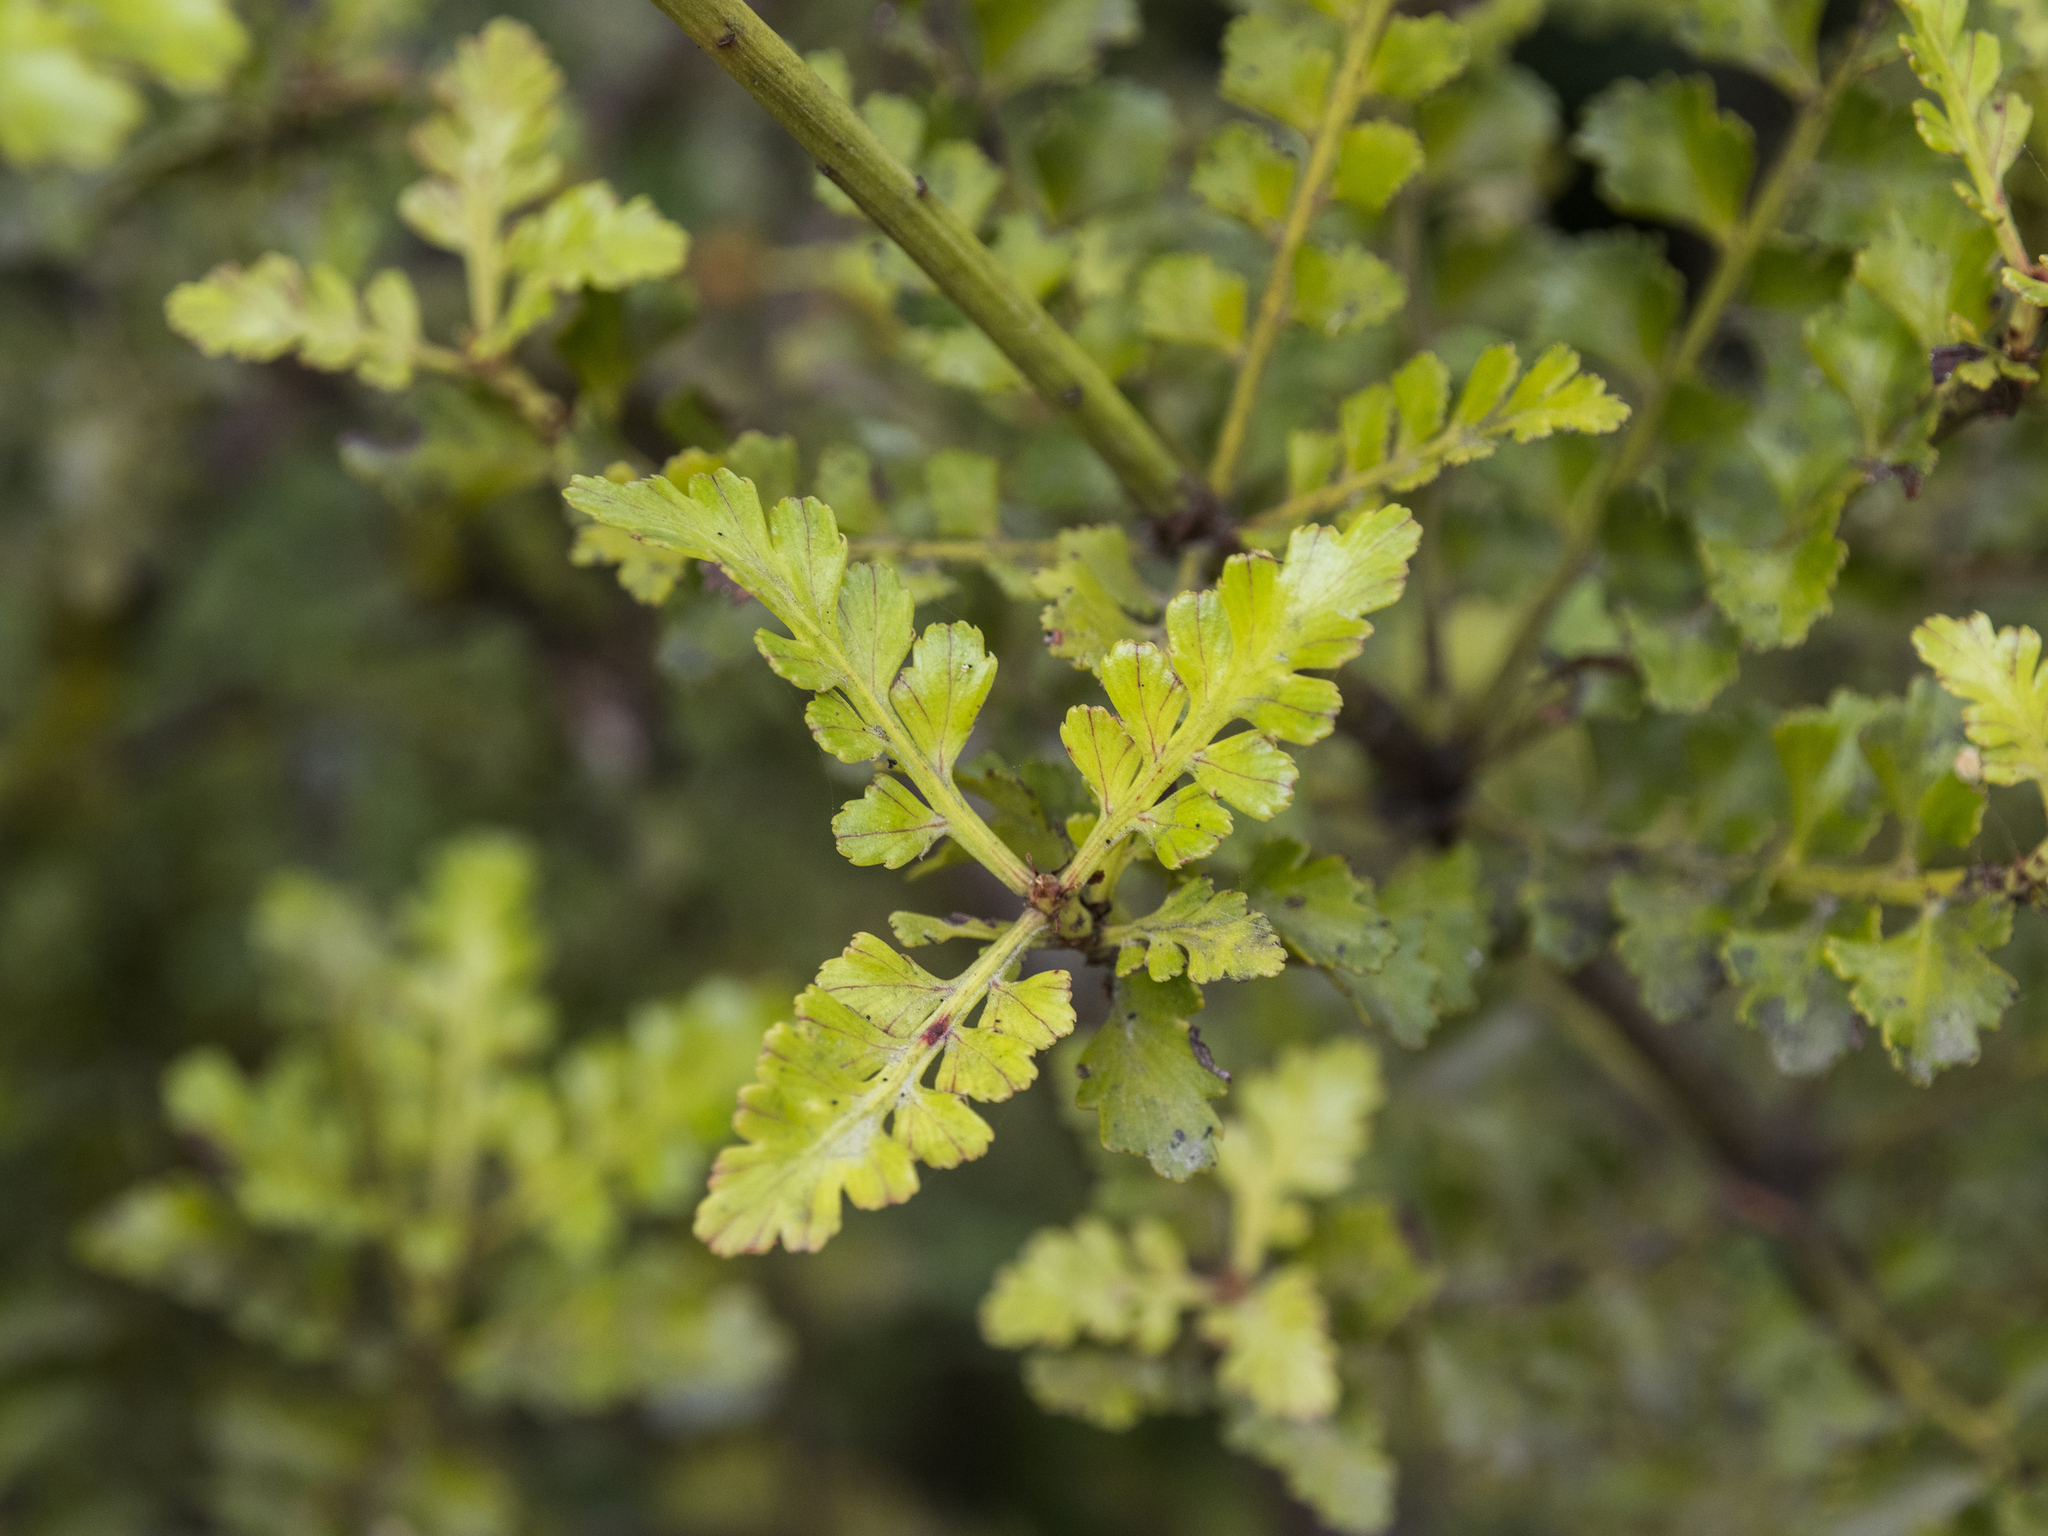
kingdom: Plantae
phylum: Tracheophyta
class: Pinopsida
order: Pinales
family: Phyllocladaceae
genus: Phyllocladus
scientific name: Phyllocladus trichomanoides
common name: Celery pine
